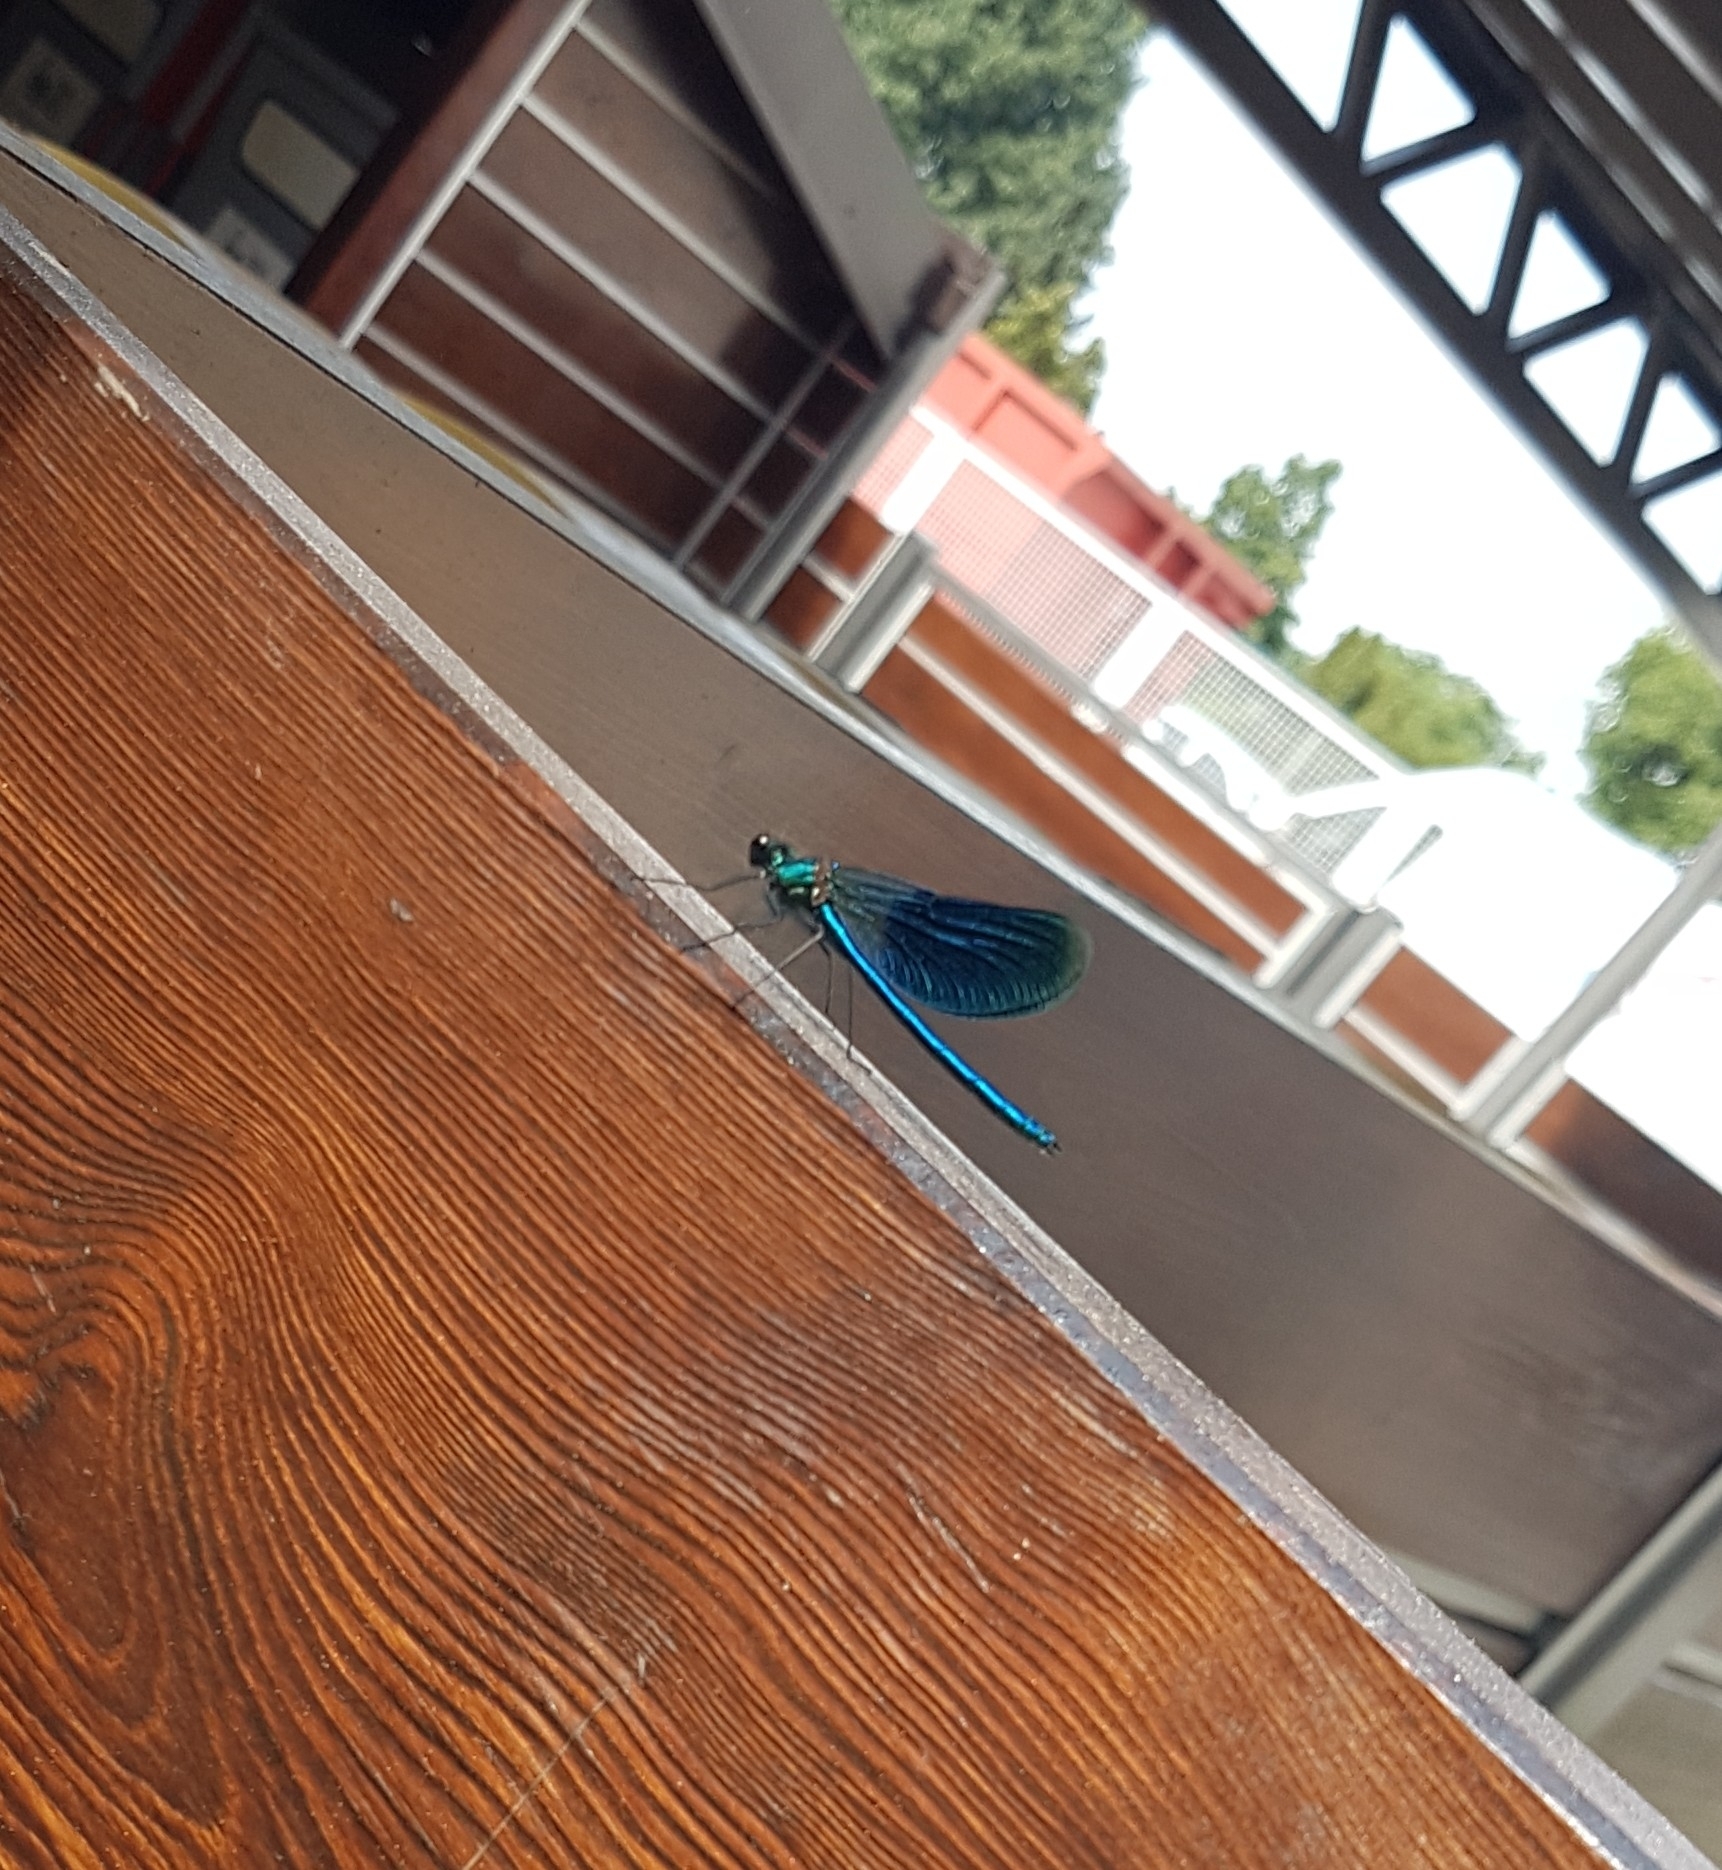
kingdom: Animalia
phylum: Arthropoda
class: Insecta
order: Odonata
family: Calopterygidae
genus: Calopteryx
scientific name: Calopteryx splendens
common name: Banded demoiselle
